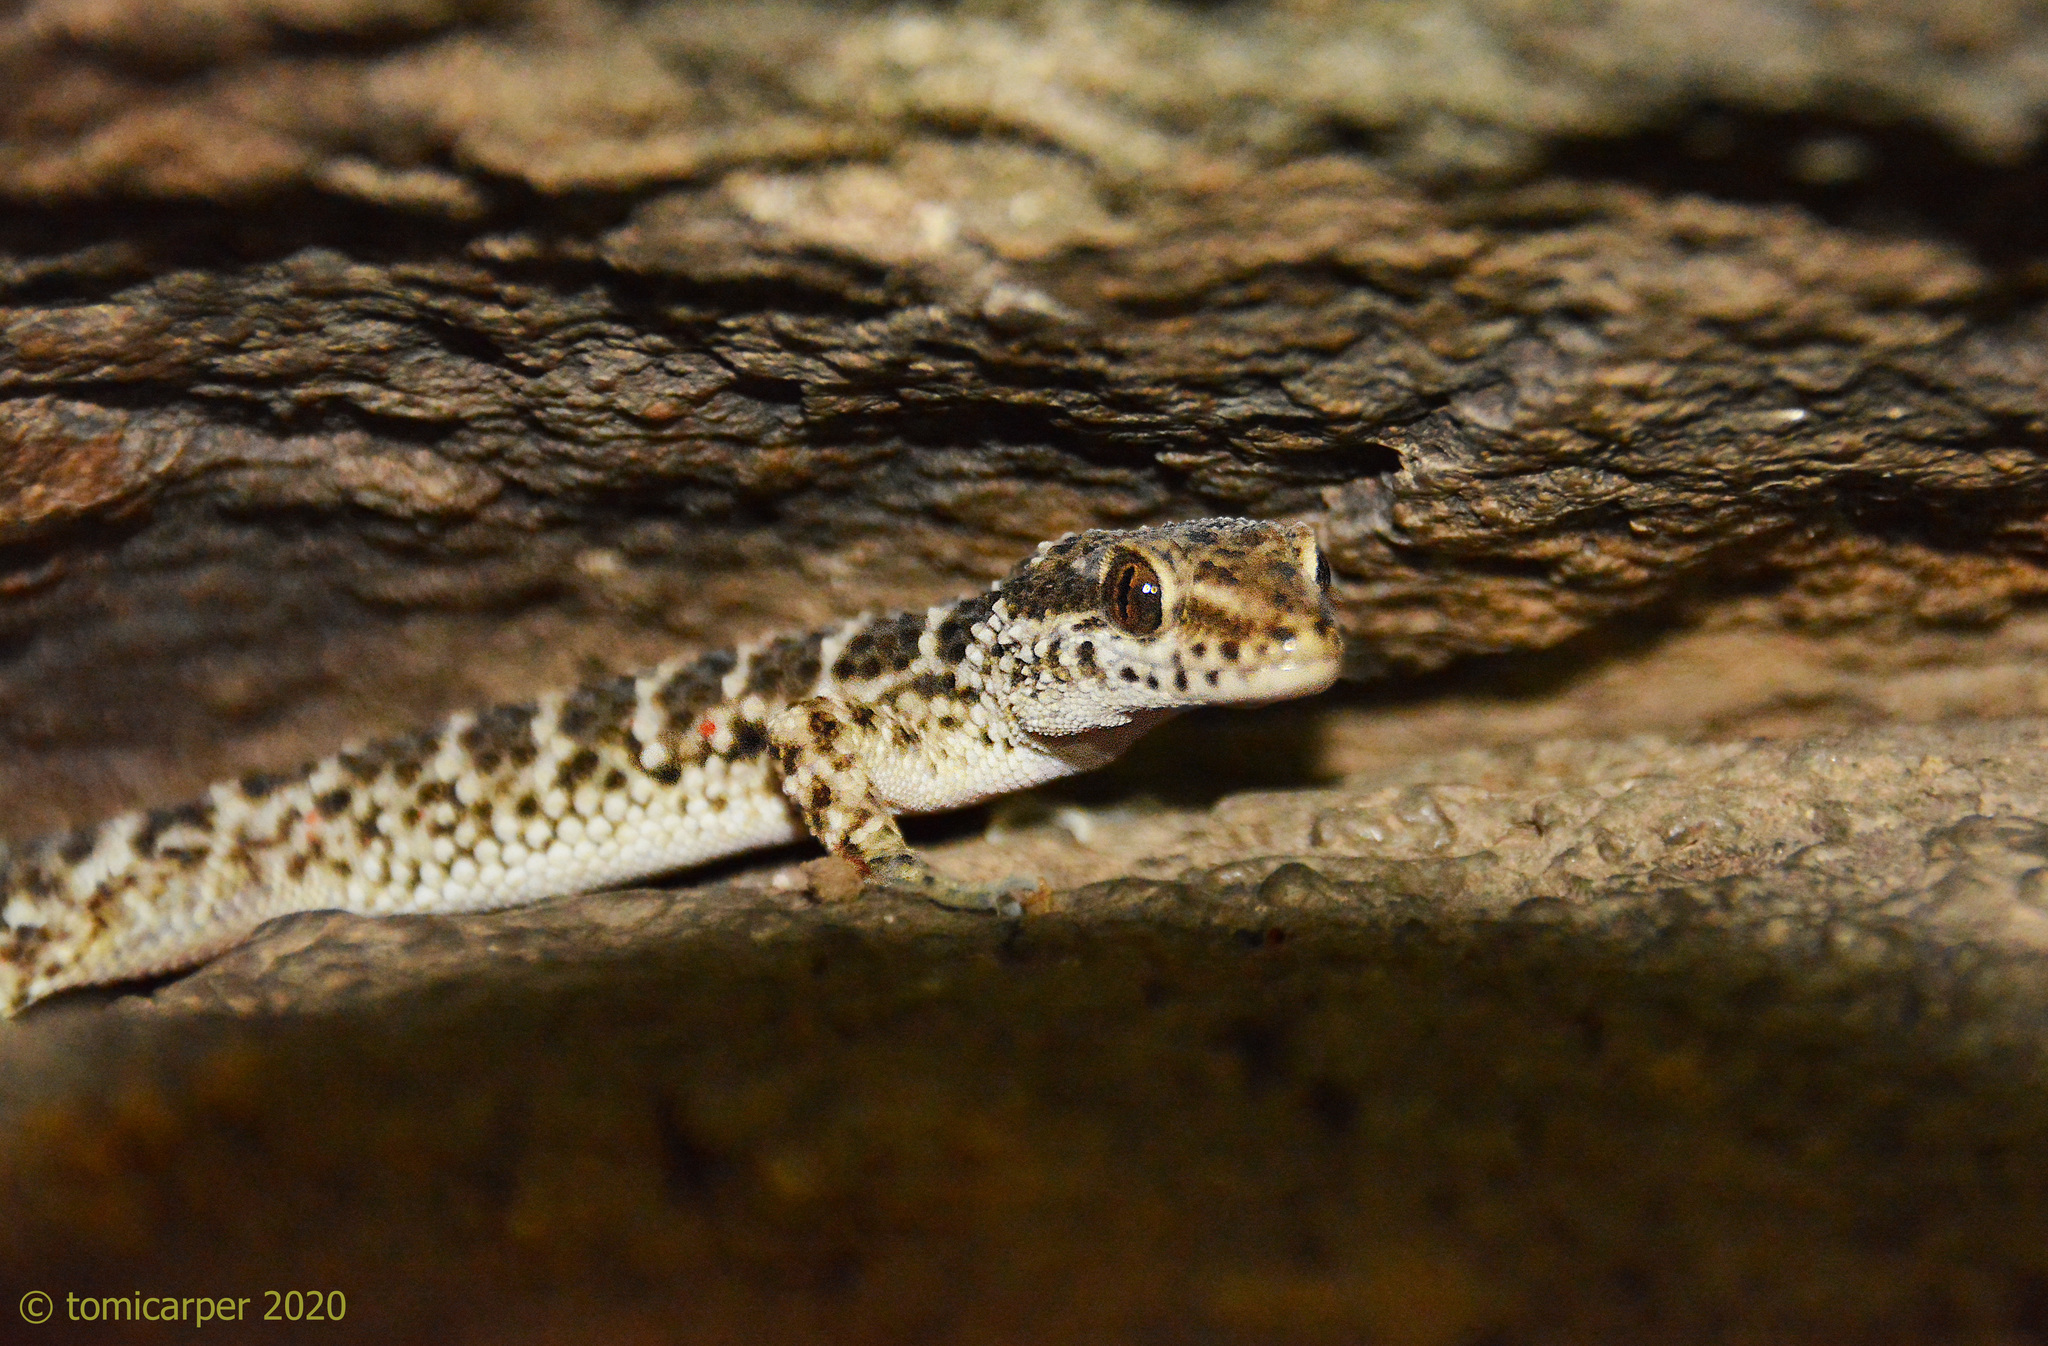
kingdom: Animalia
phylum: Chordata
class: Squamata
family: Phyllodactylidae
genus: Homonota
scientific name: Homonota horrida
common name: South american marked gecko
